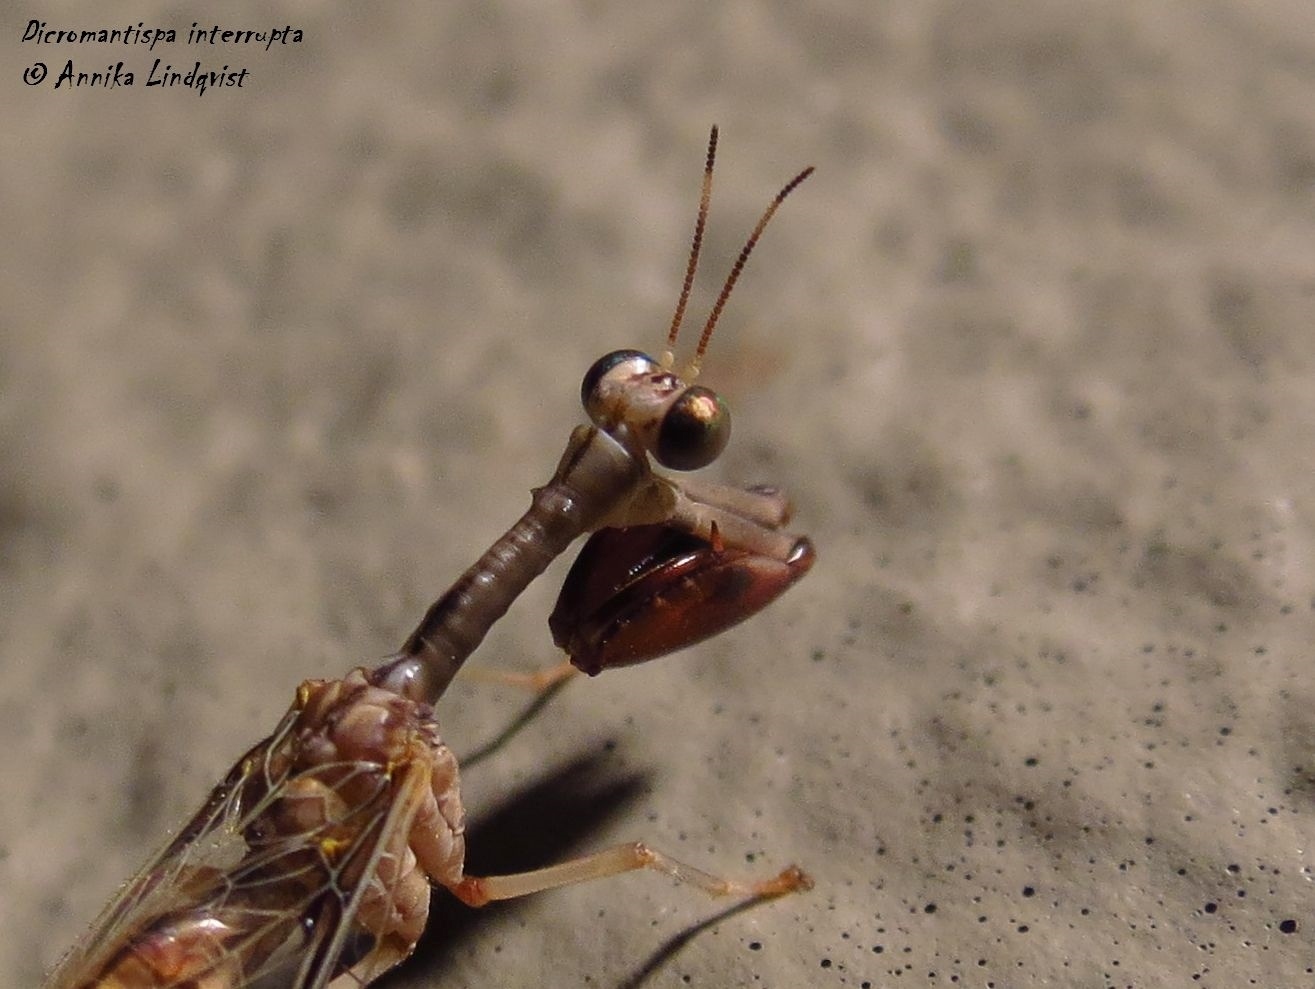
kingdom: Animalia
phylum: Arthropoda
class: Insecta
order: Neuroptera
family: Mantispidae
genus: Dicromantispa
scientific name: Dicromantispa interrupta
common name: Four-spotted mantidfly
